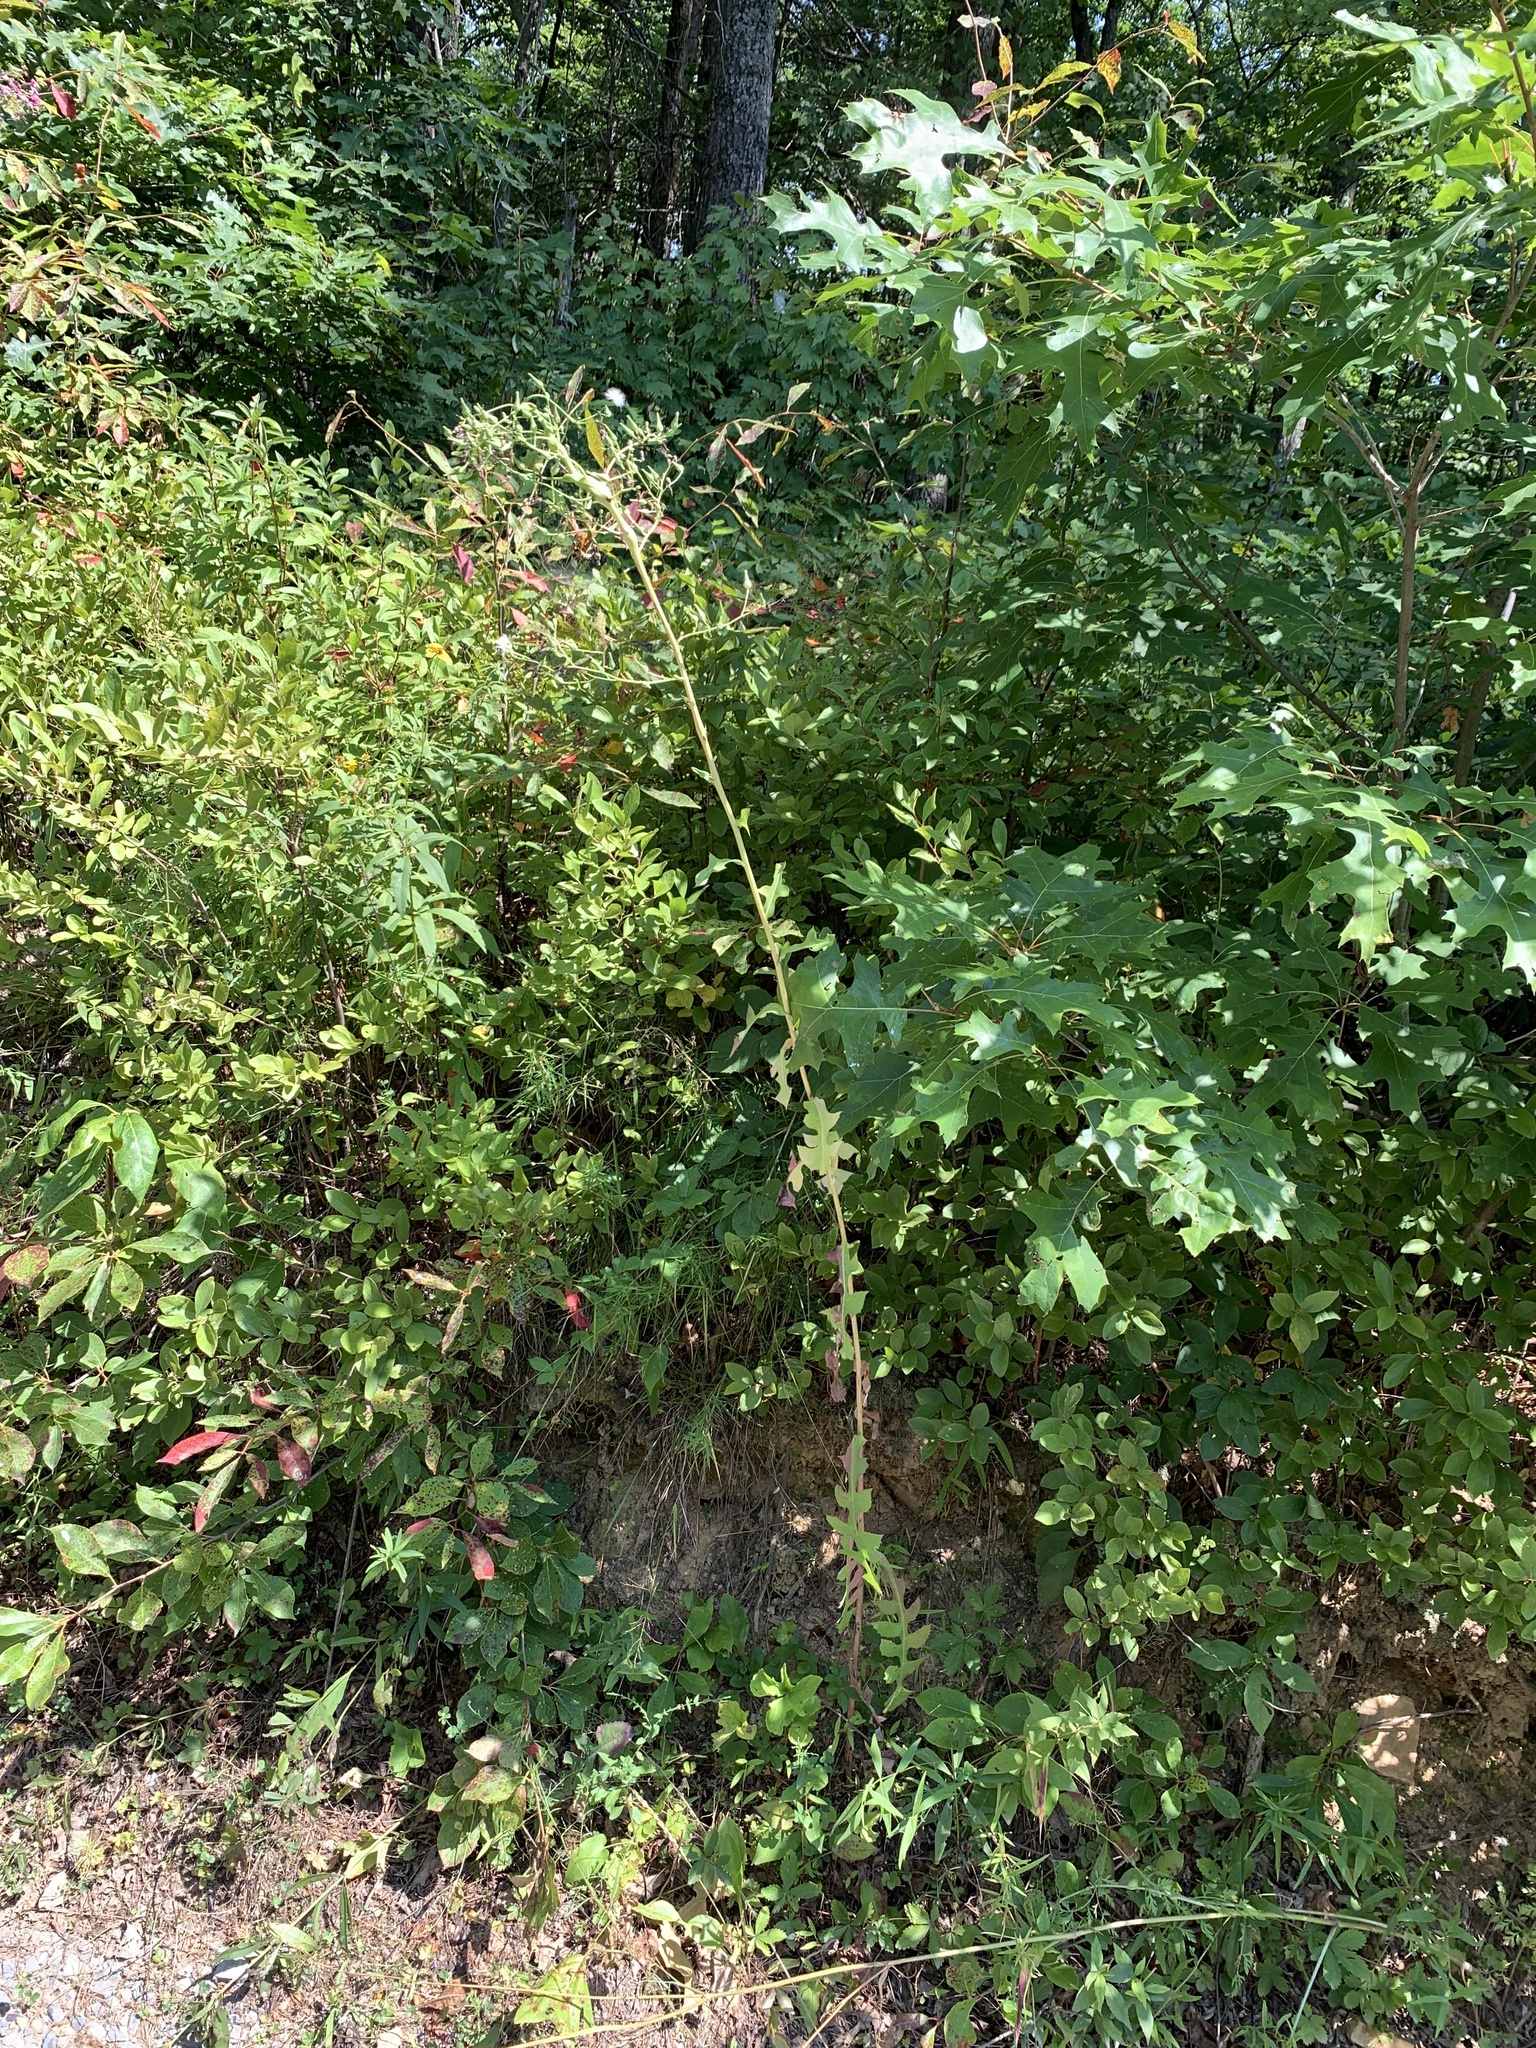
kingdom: Animalia
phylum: Arthropoda
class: Insecta
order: Hymenoptera
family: Cynipidae
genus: Aulacidea
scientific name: Aulacidea
